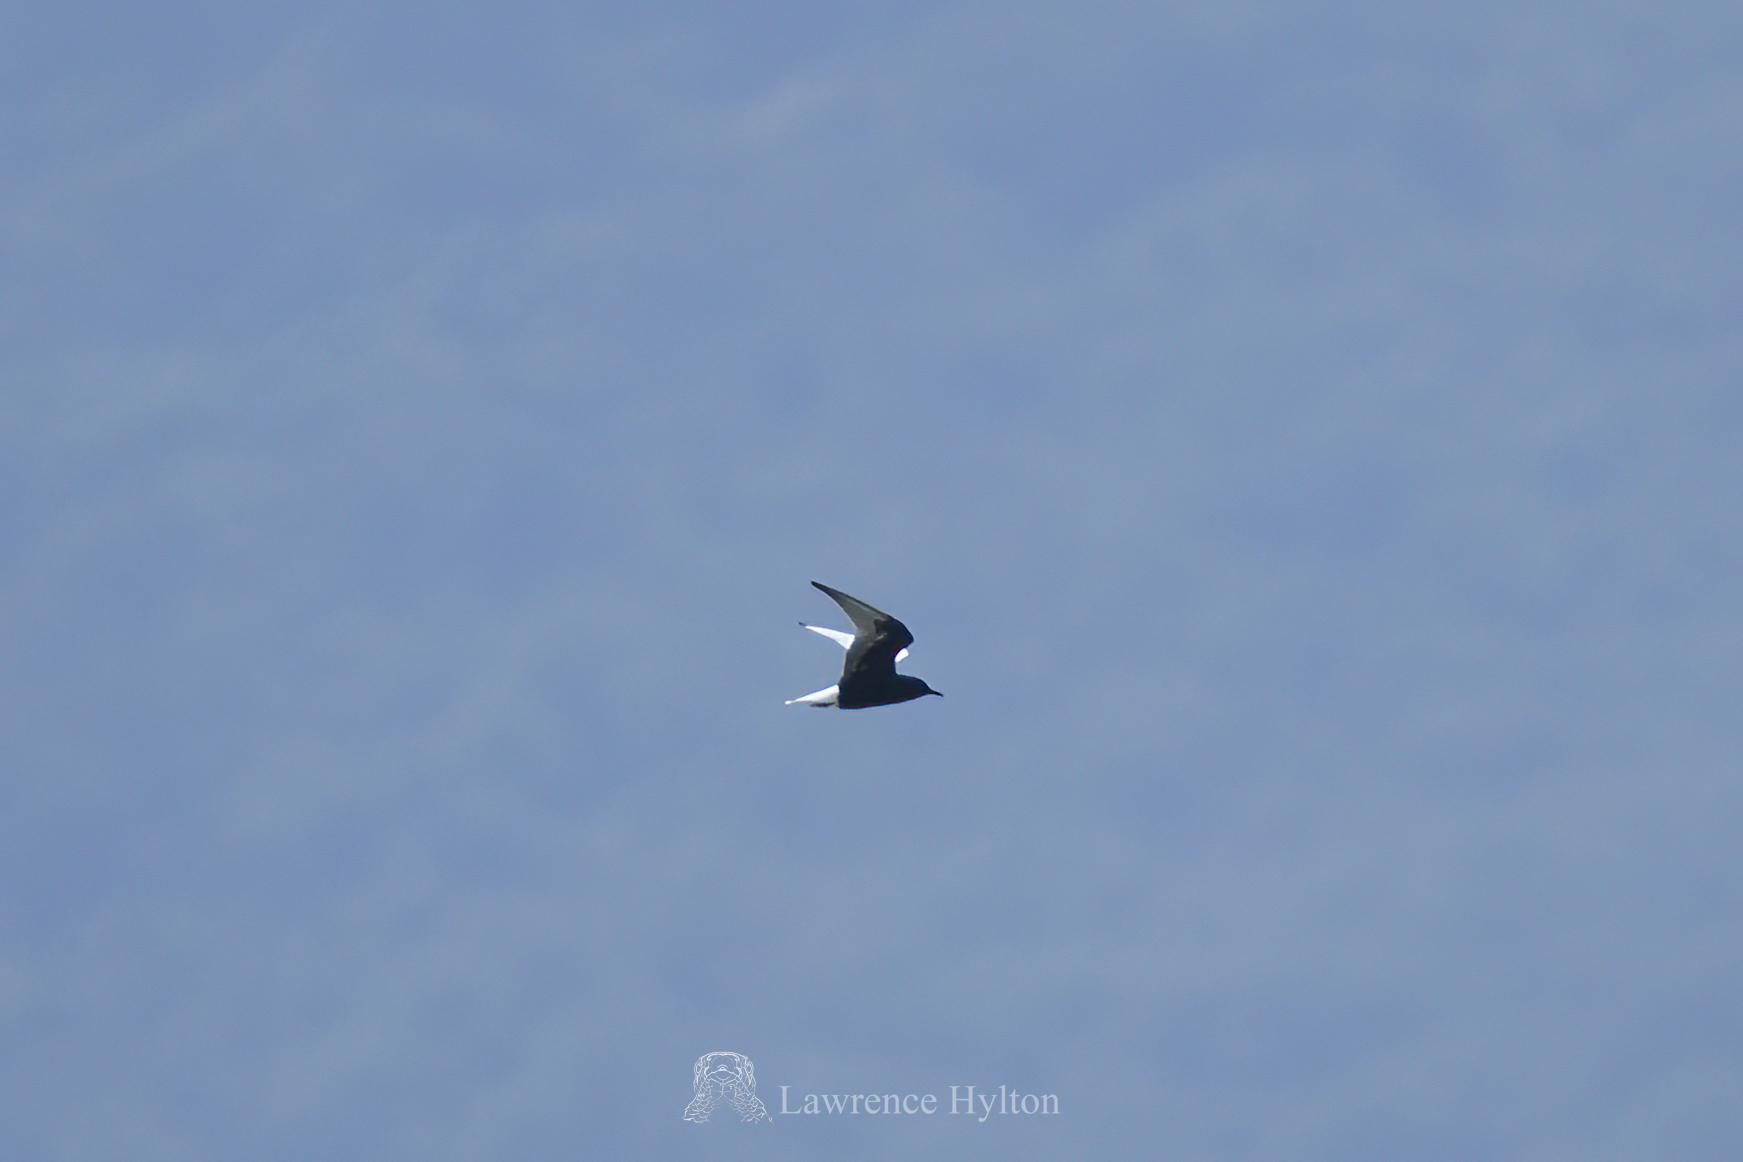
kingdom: Animalia
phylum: Chordata
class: Aves
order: Charadriiformes
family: Laridae
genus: Chlidonias
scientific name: Chlidonias leucopterus
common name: White-winged tern
